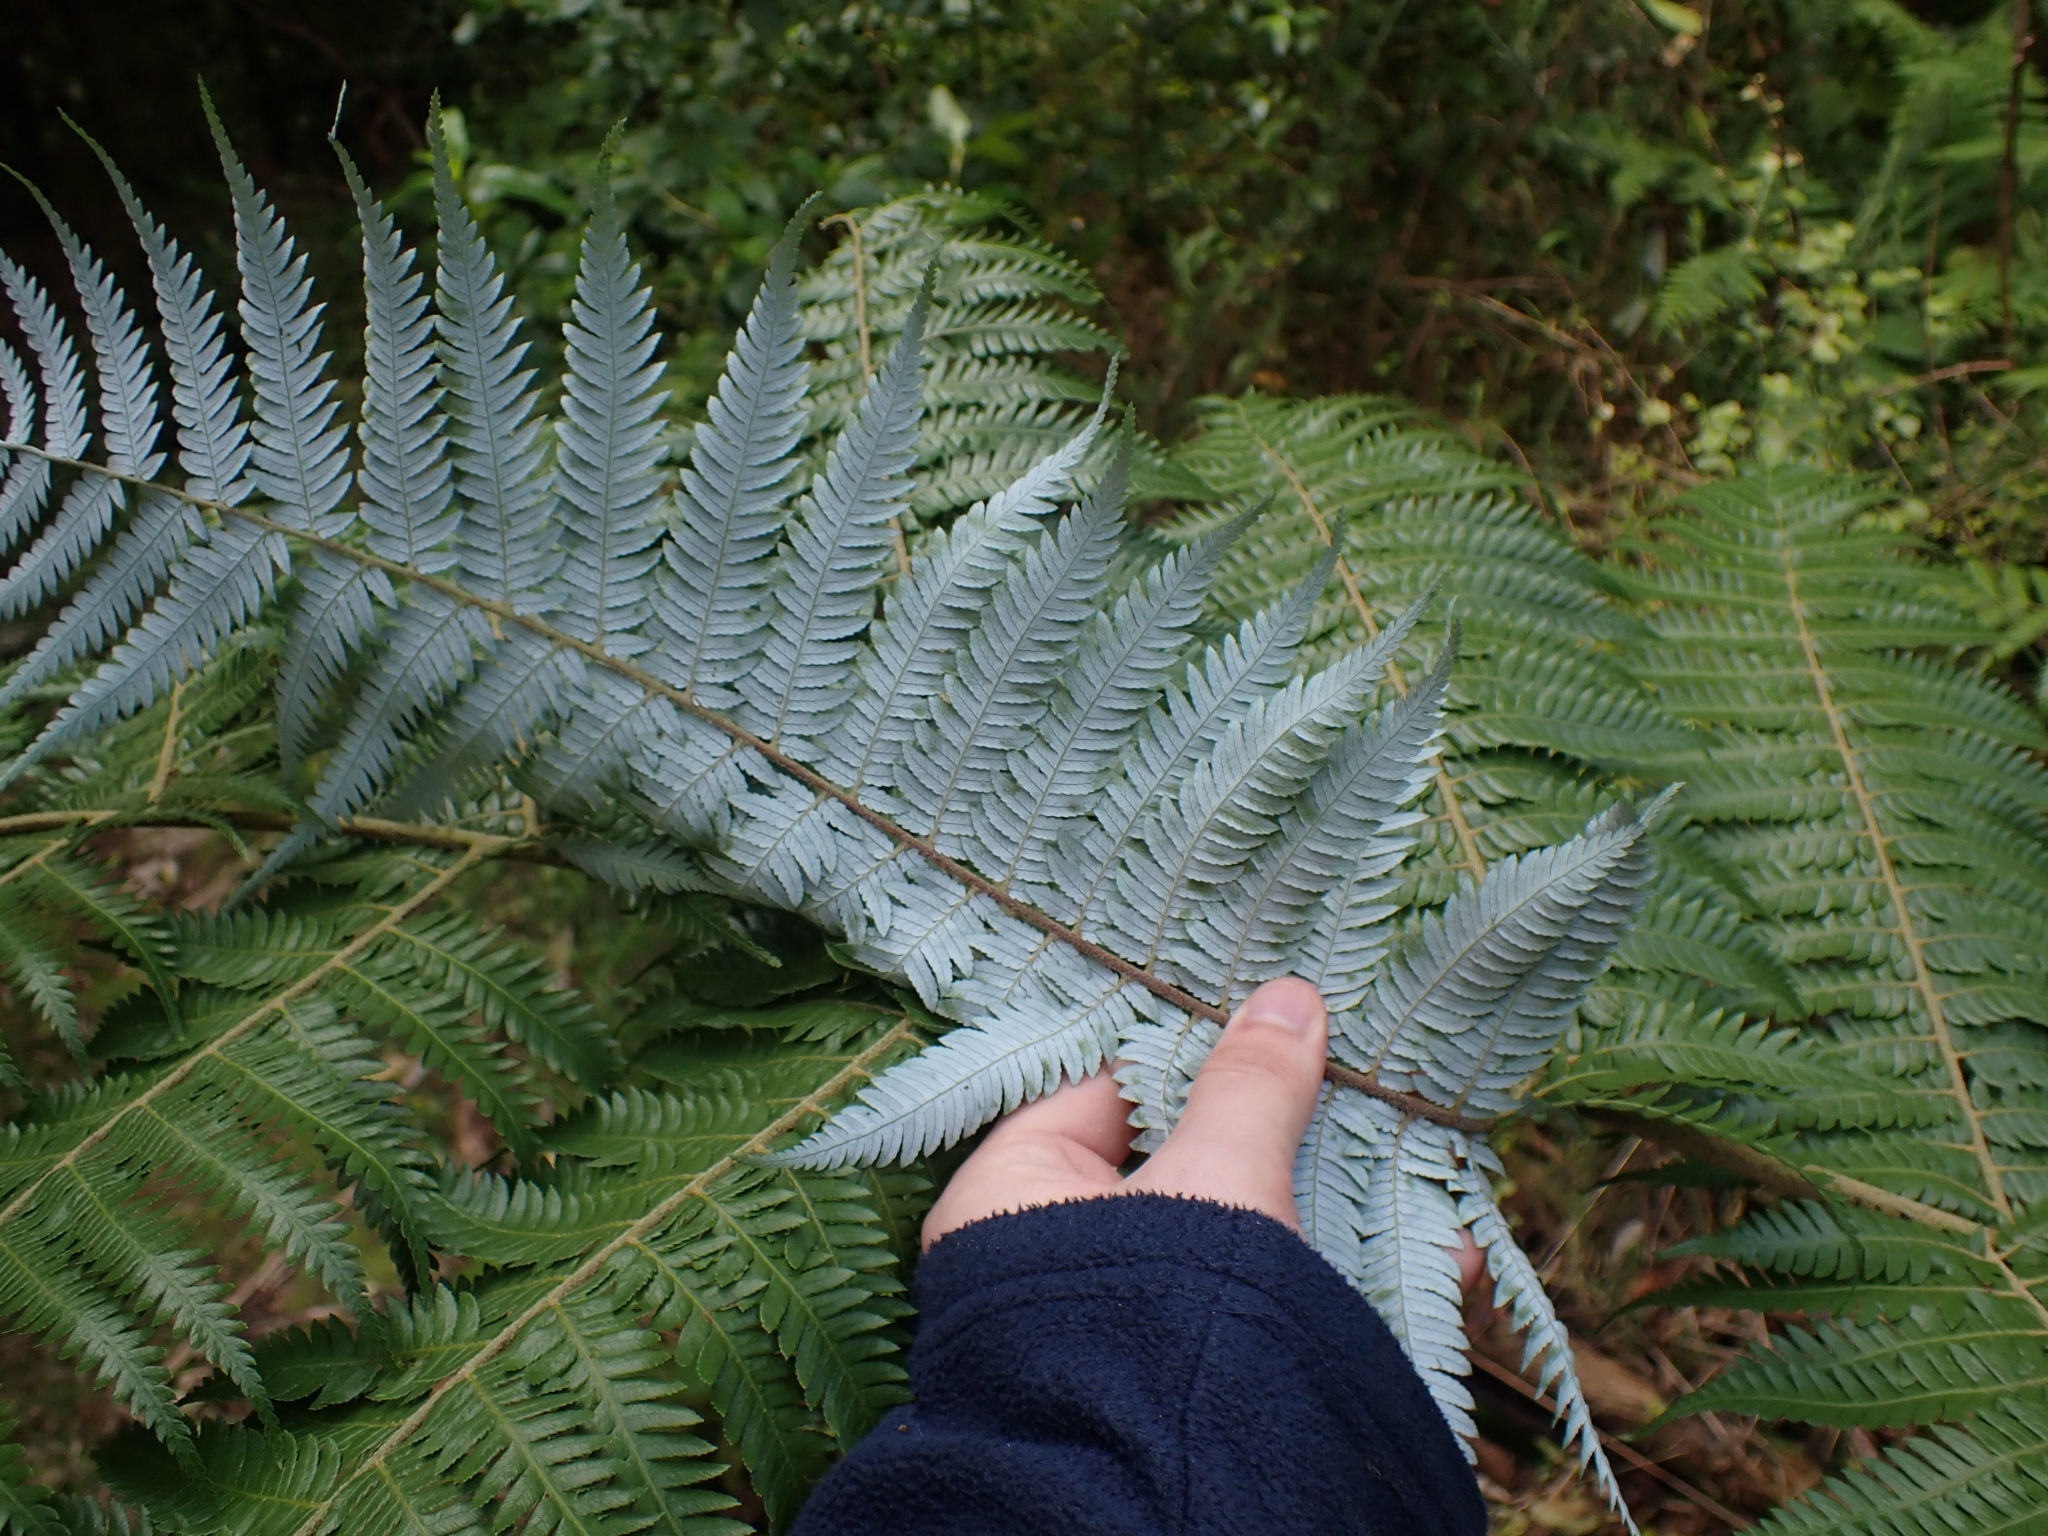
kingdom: Plantae
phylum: Tracheophyta
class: Polypodiopsida
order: Cyatheales
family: Cyatheaceae
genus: Alsophila
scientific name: Alsophila dealbata
